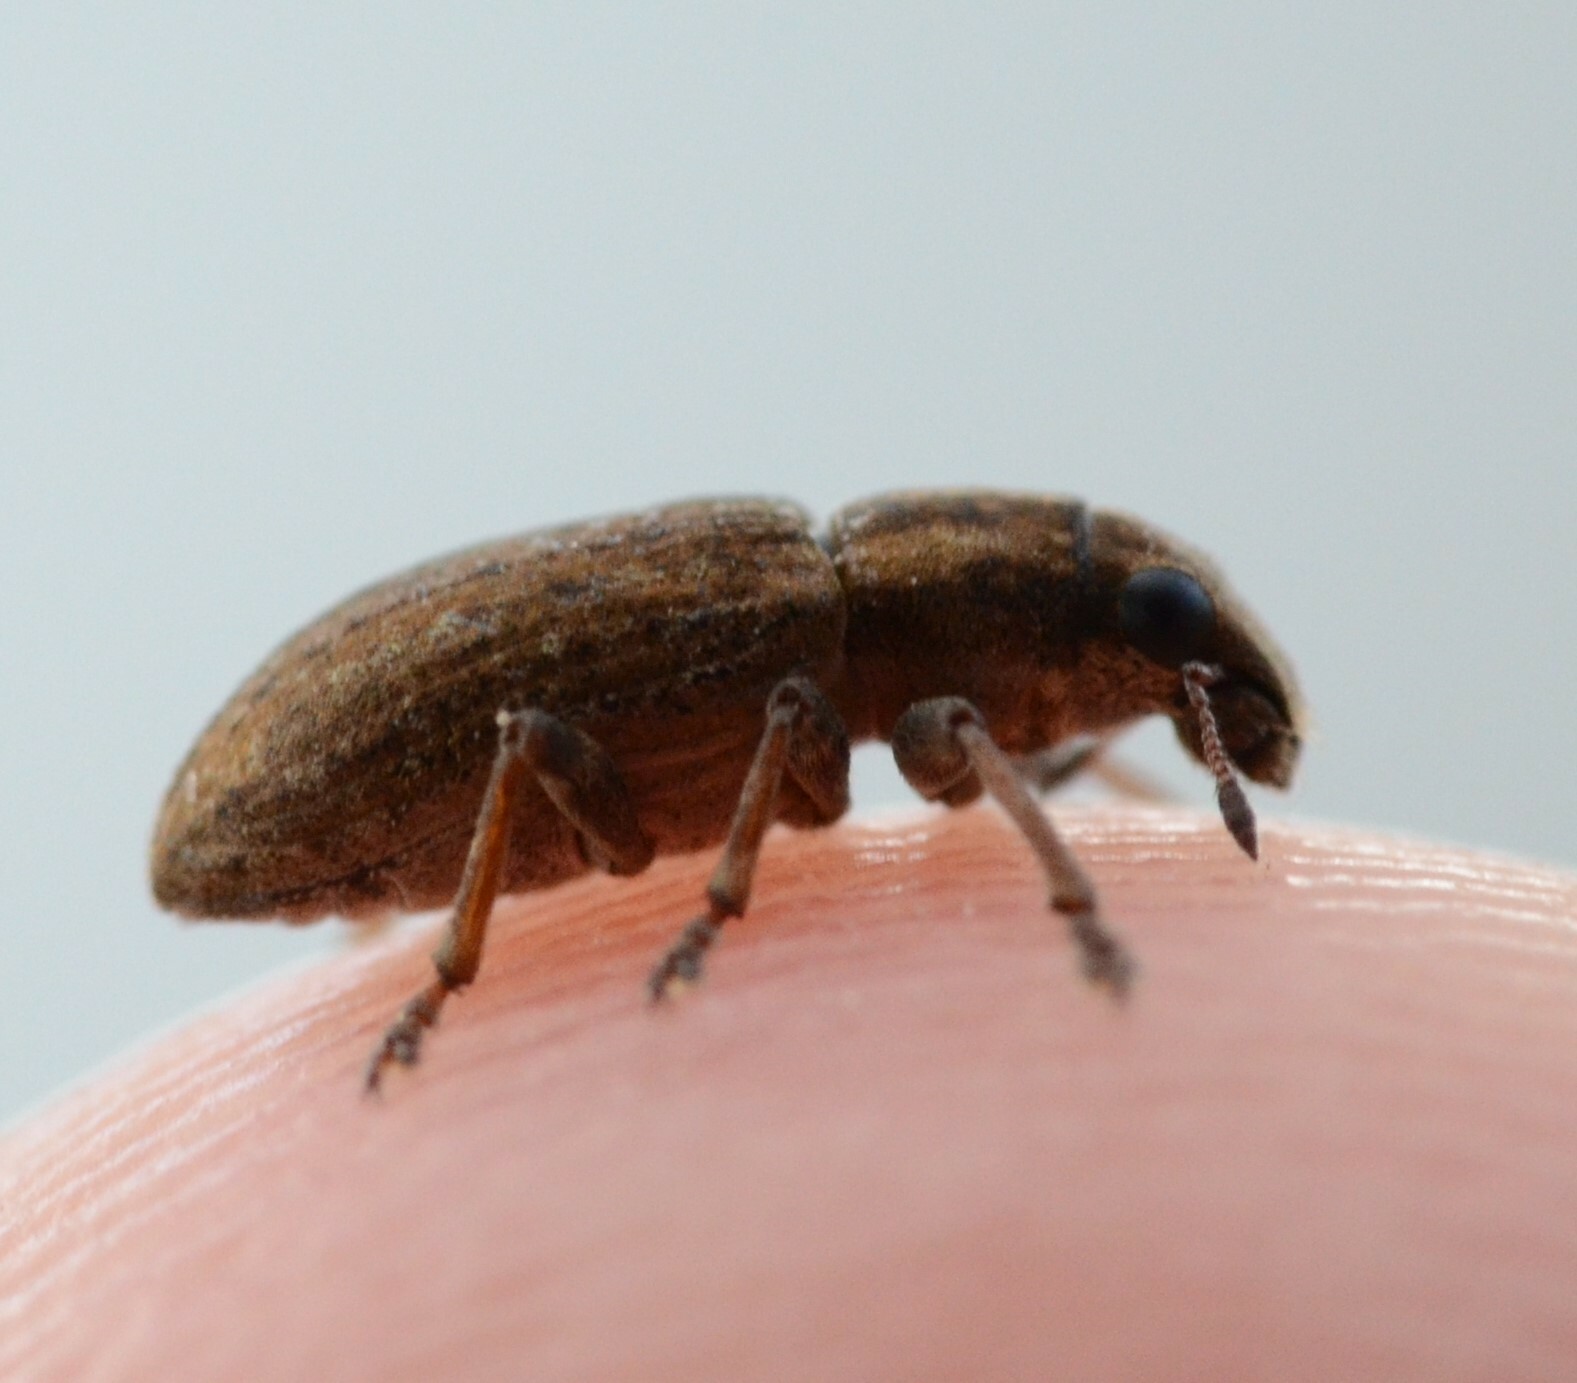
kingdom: Animalia
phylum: Arthropoda
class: Insecta
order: Coleoptera
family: Curculionidae
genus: Sitona
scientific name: Sitona obsoletus
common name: Weevil
